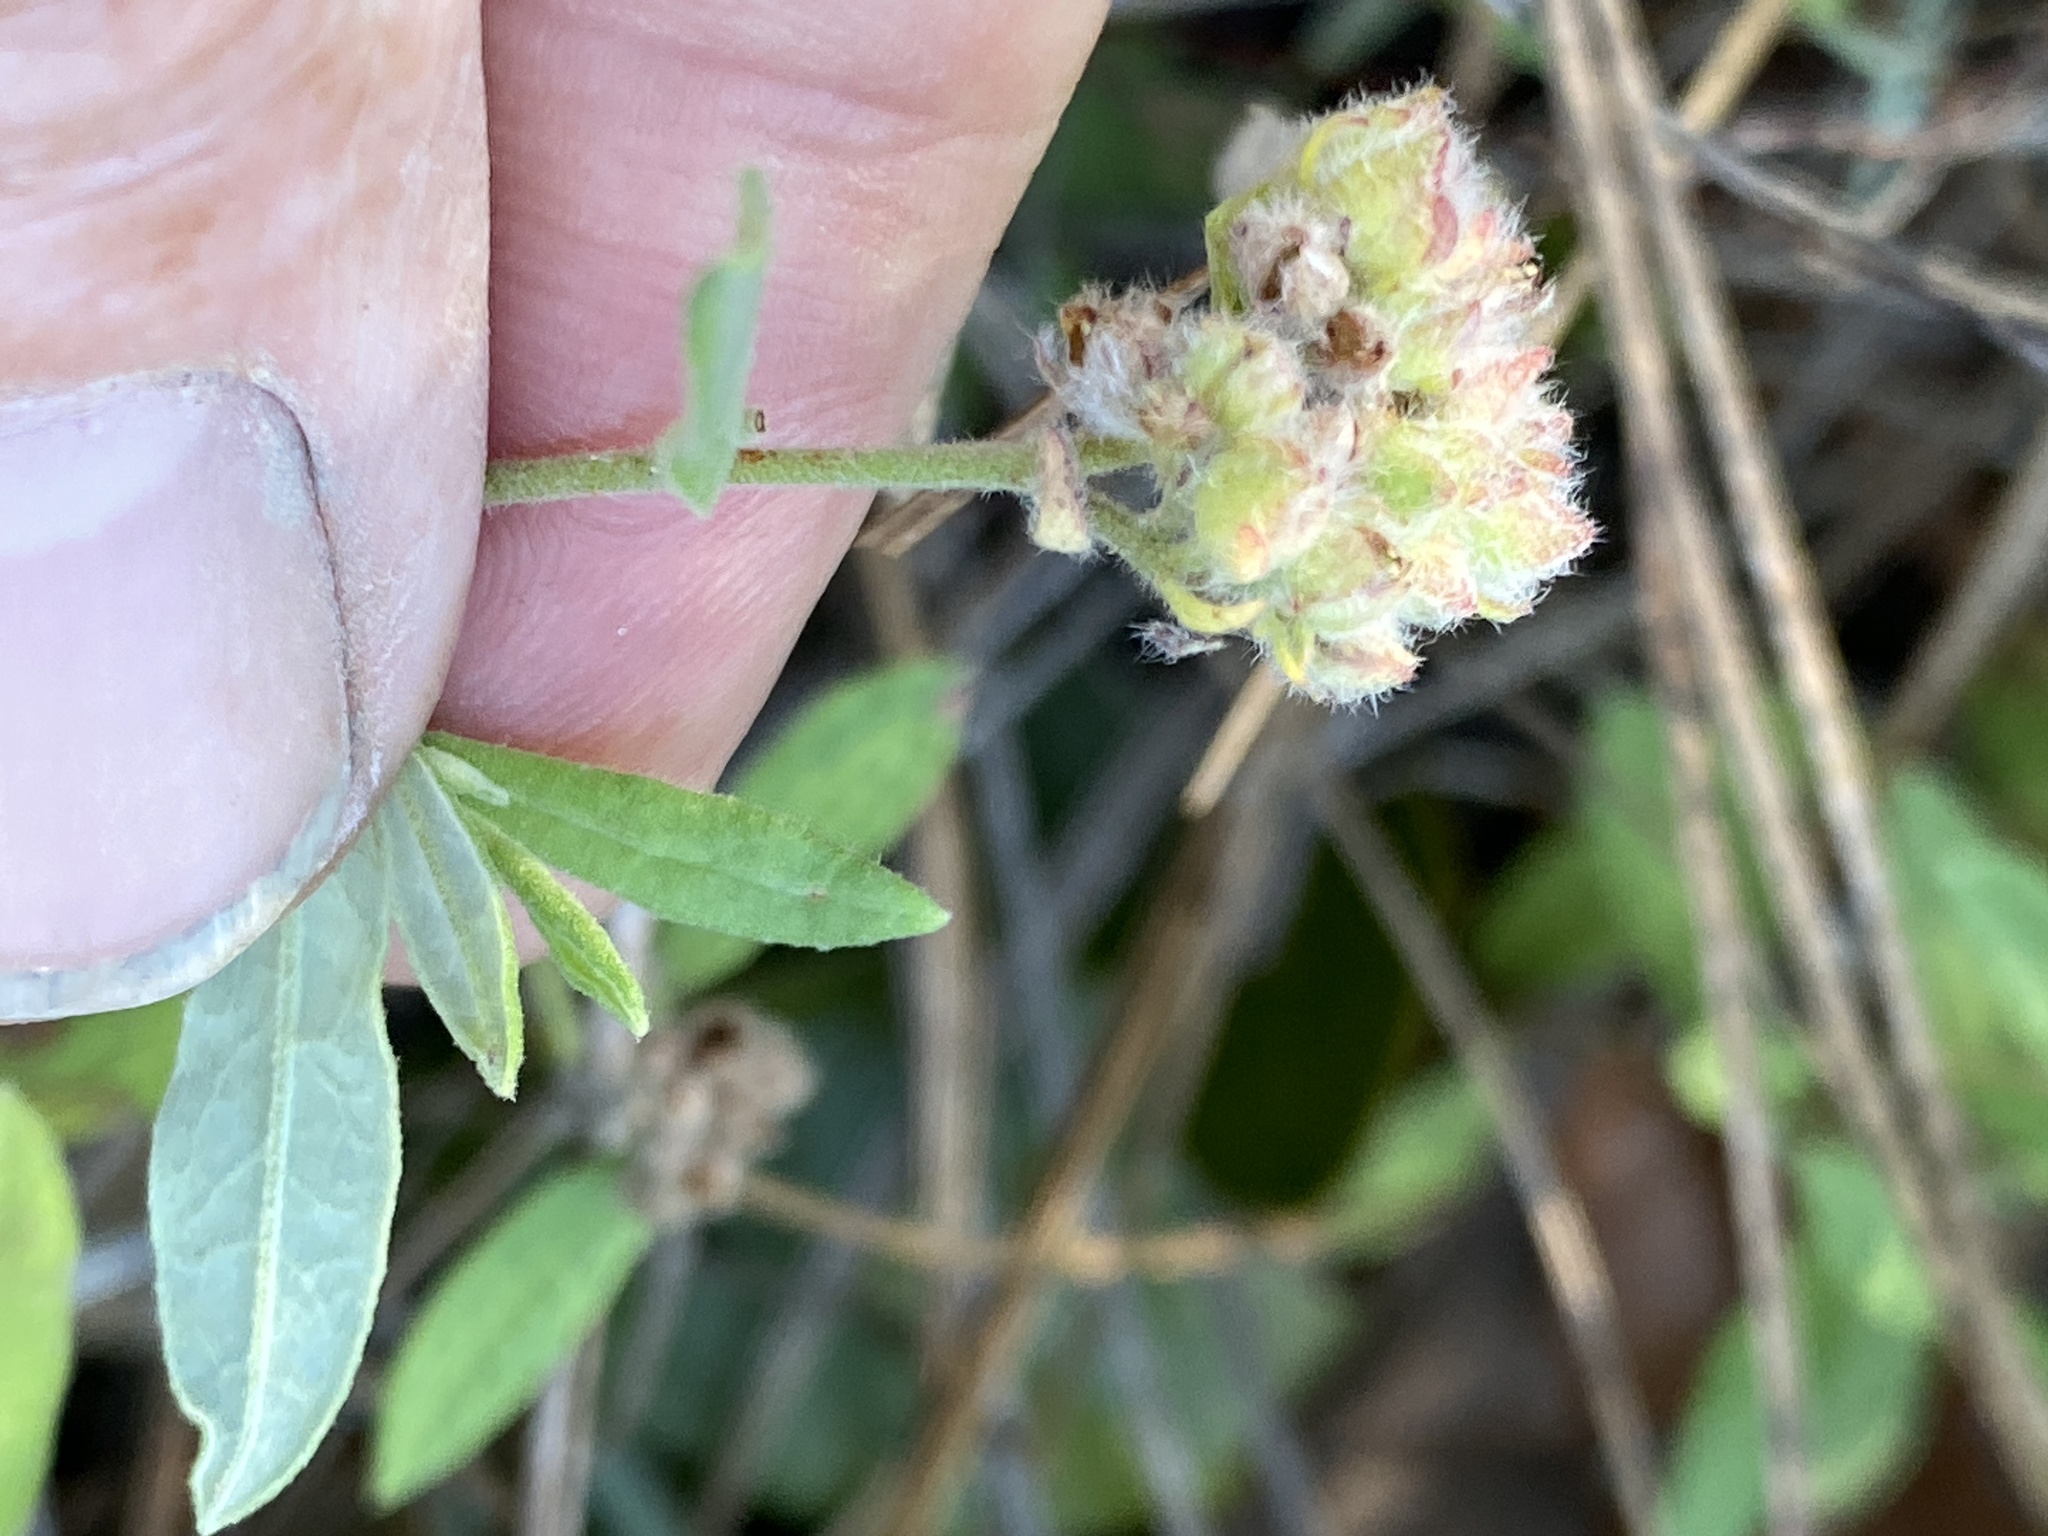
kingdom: Plantae
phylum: Tracheophyta
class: Magnoliopsida
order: Malvales
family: Cistaceae
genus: Crocanthemum
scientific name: Crocanthemum corymbosum
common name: Pinebarren sun-rose
